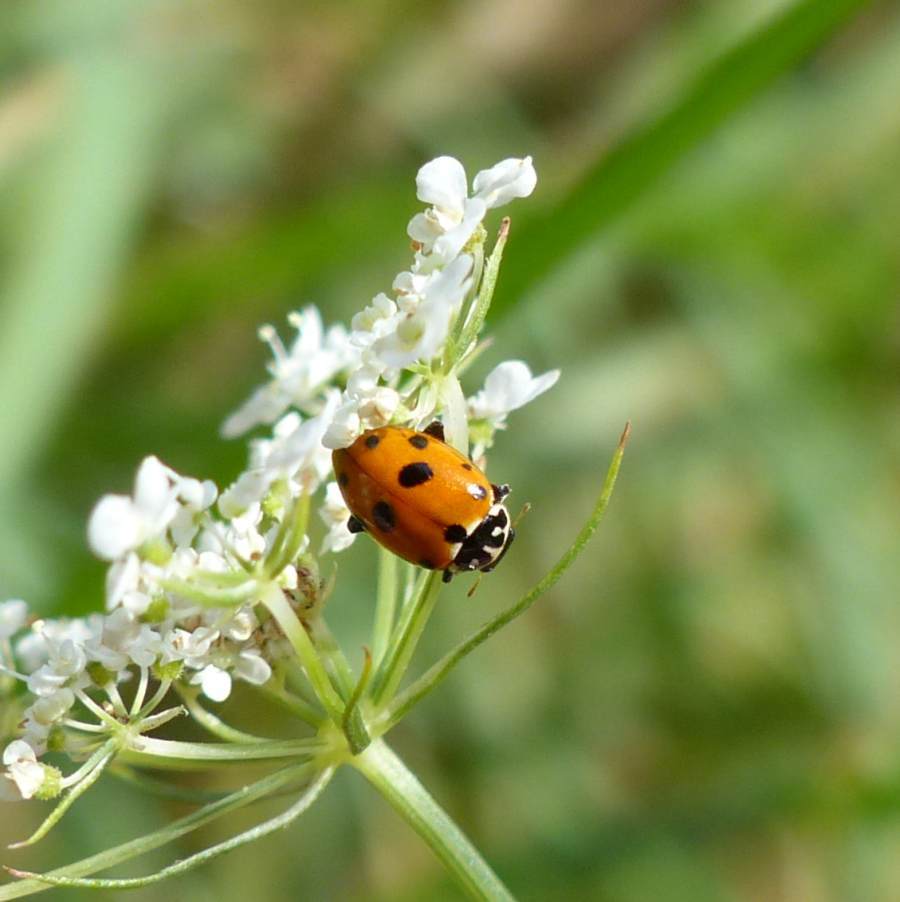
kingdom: Animalia
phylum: Arthropoda
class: Insecta
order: Coleoptera
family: Coccinellidae
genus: Hippodamia
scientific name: Hippodamia variegata
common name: Ladybird beetle
